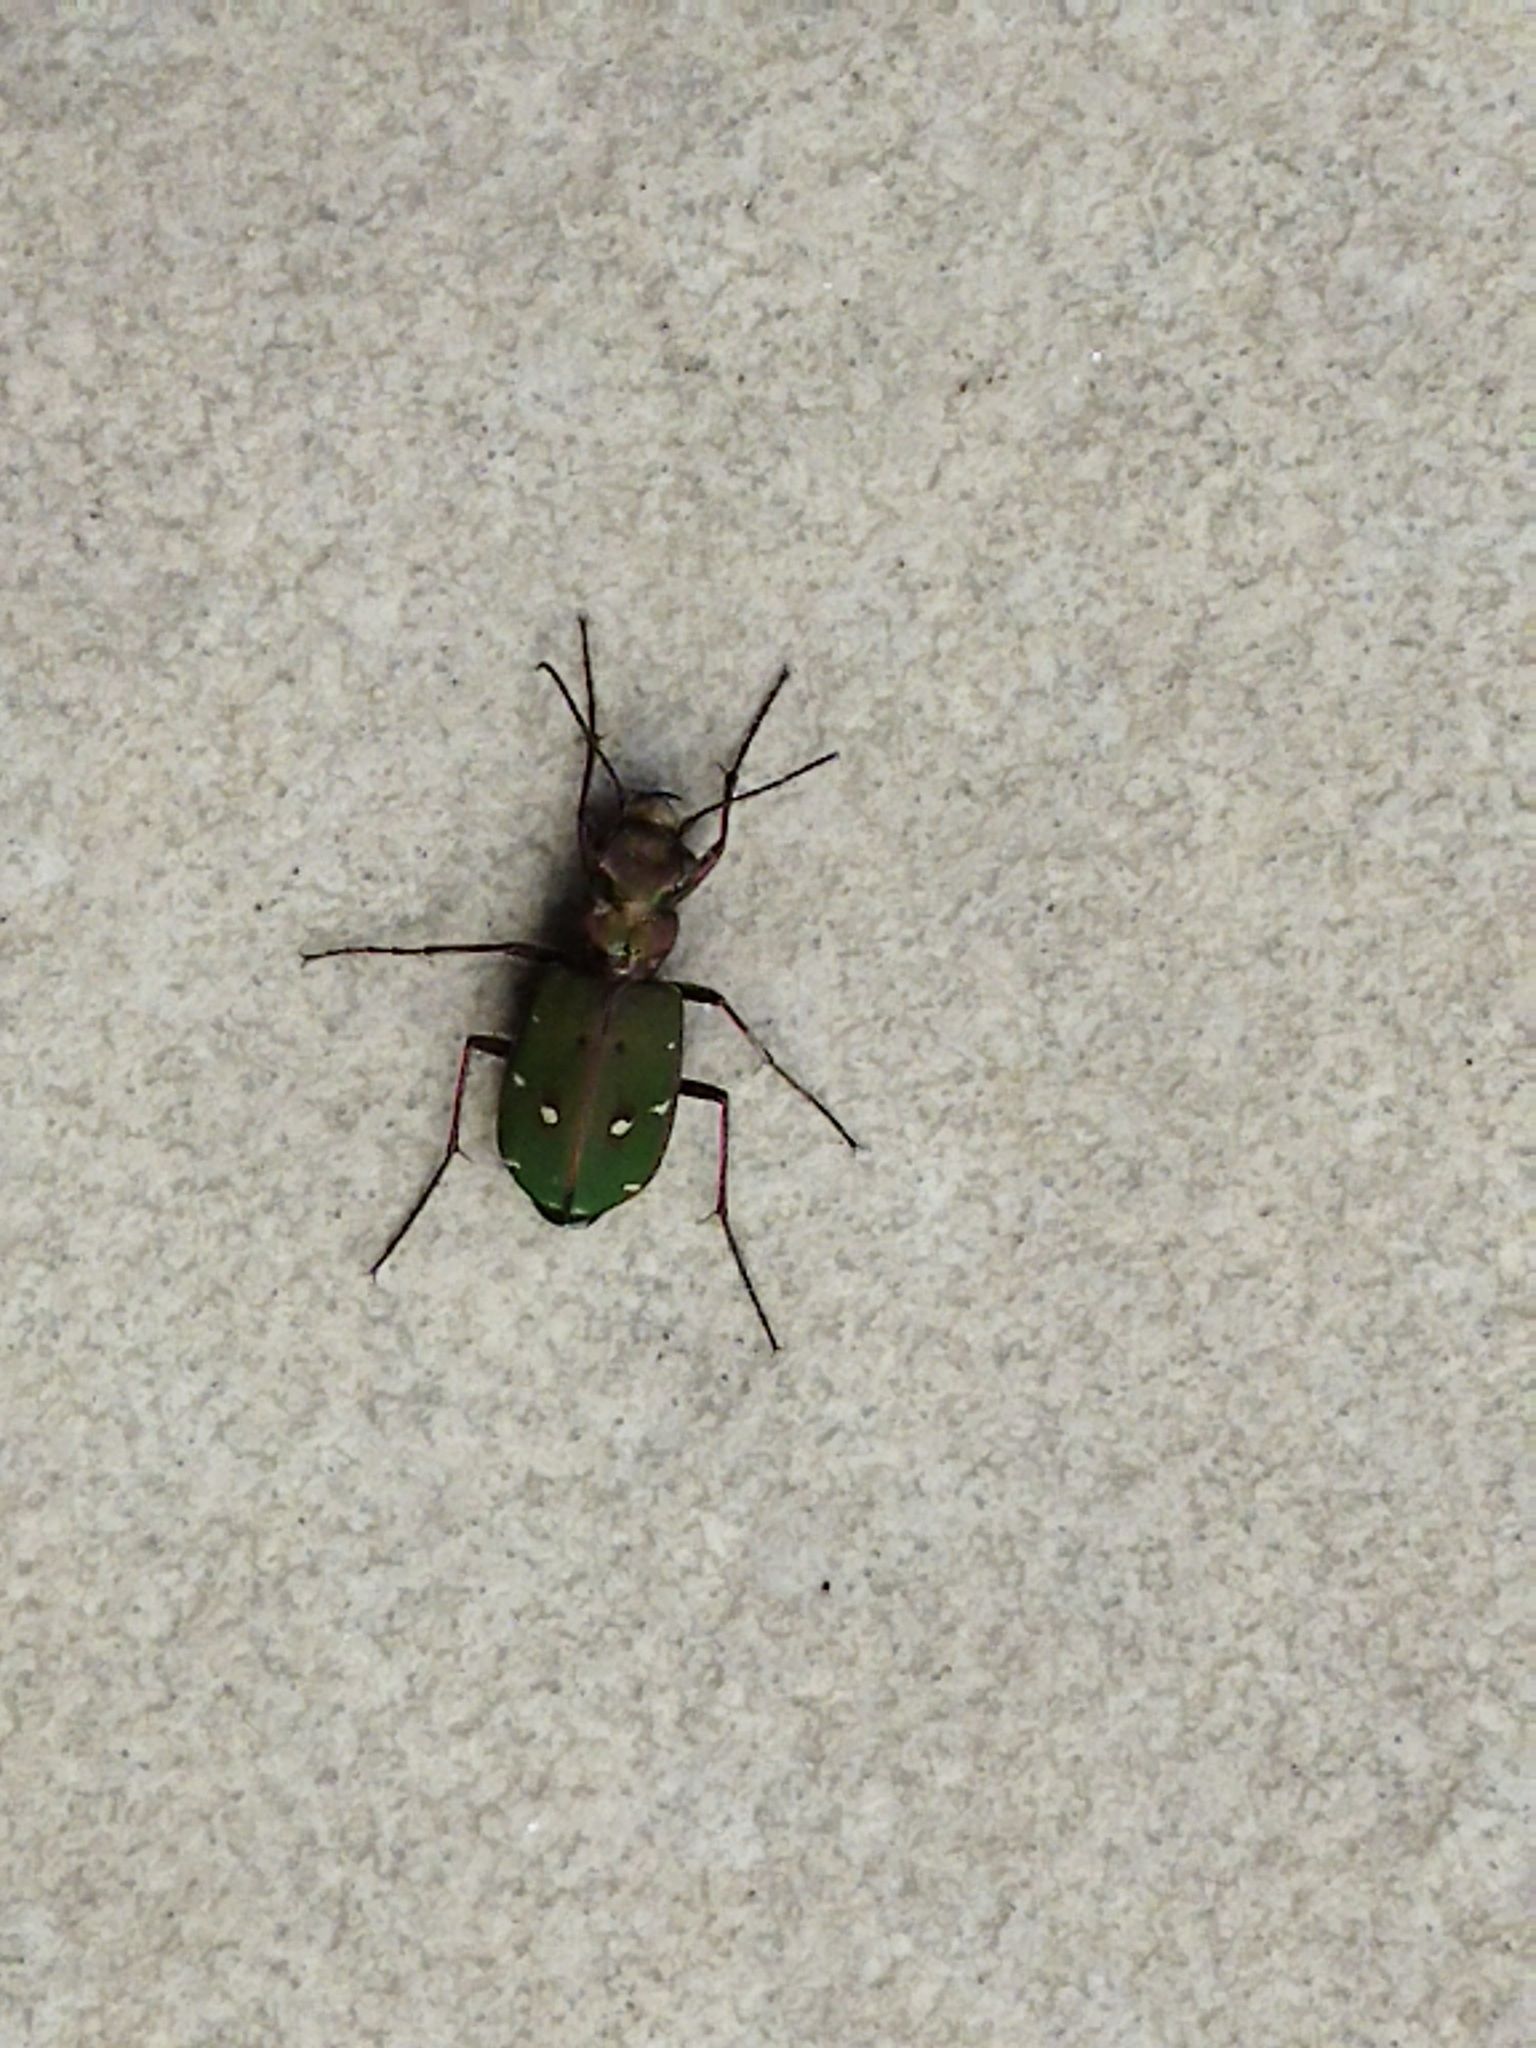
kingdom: Animalia
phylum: Arthropoda
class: Insecta
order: Coleoptera
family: Carabidae
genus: Cicindela
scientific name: Cicindela campestris
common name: Common tiger beetle
